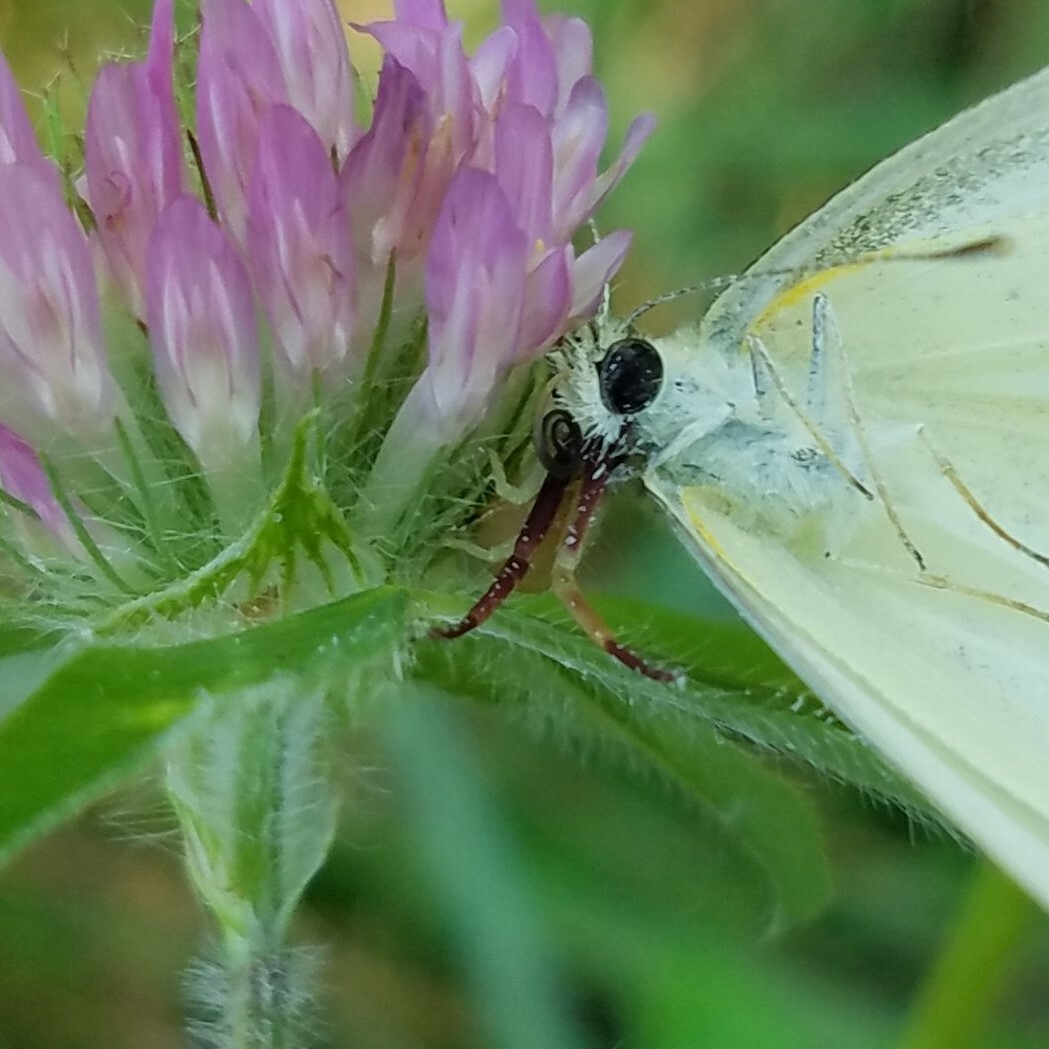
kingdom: Animalia
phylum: Arthropoda
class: Arachnida
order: Araneae
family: Thomisidae
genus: Misumenoides
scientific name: Misumenoides formosipes
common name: White-banded crab spider
